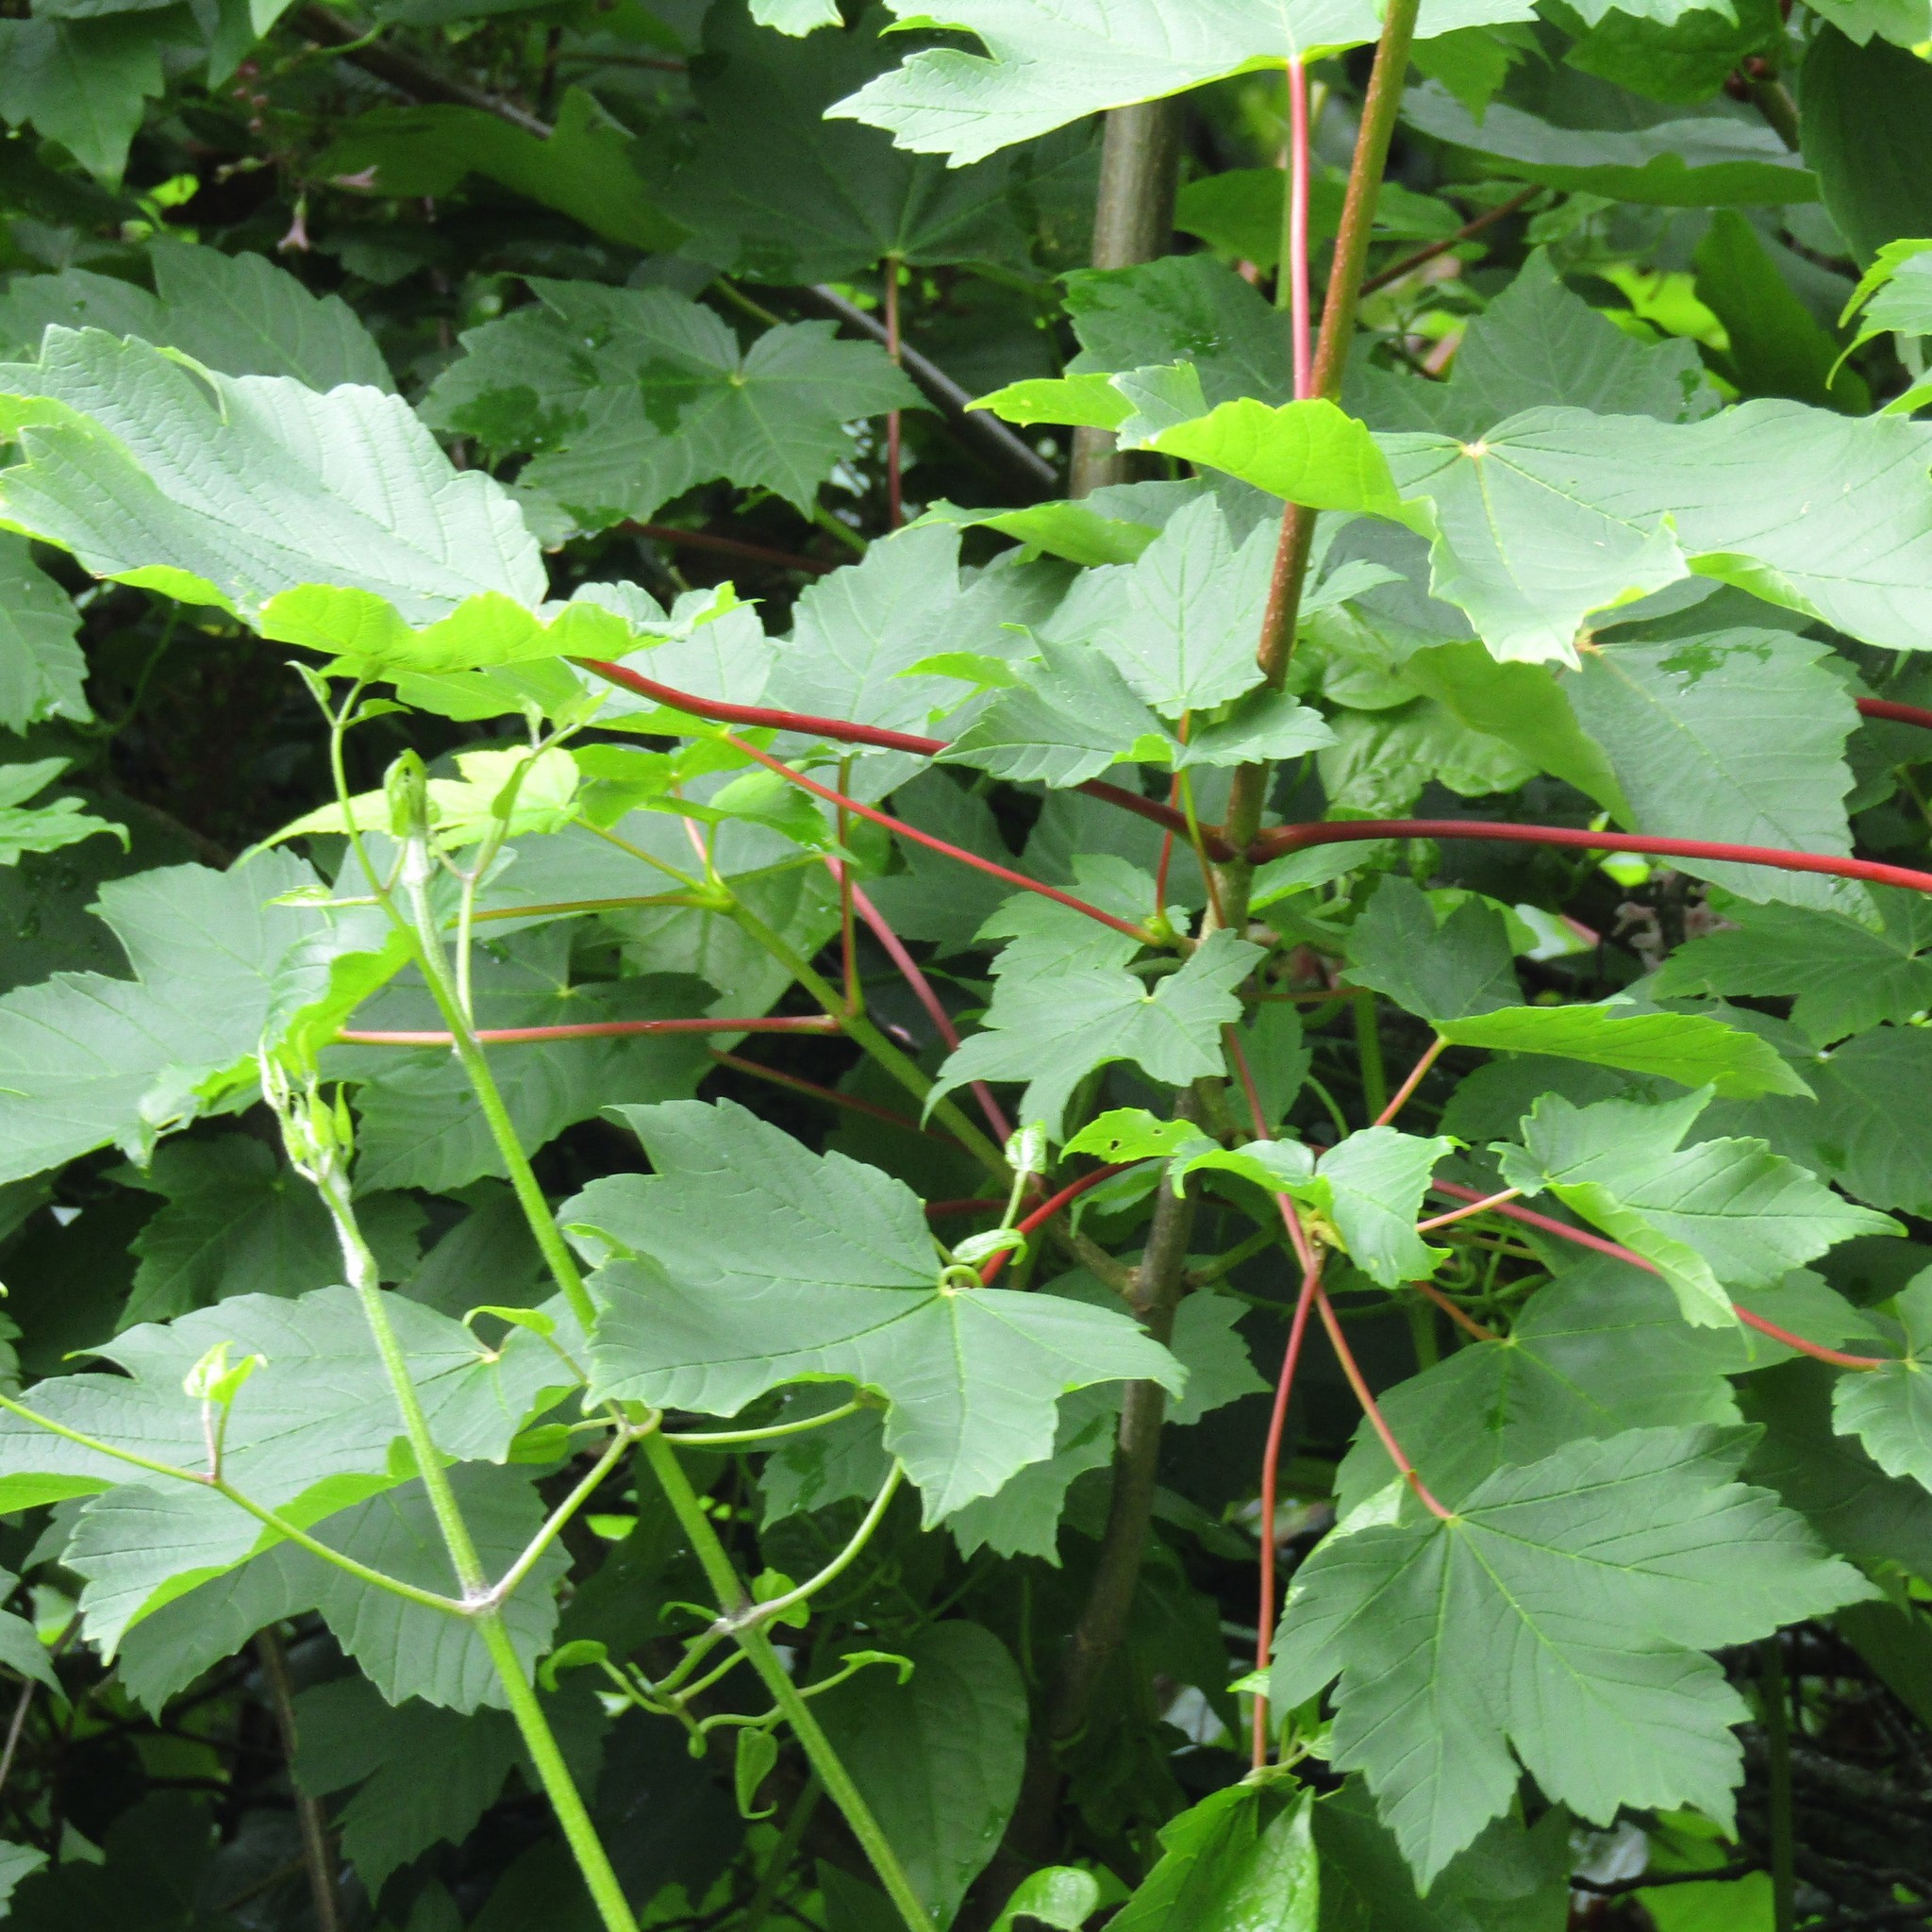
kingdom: Plantae
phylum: Tracheophyta
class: Magnoliopsida
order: Sapindales
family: Sapindaceae
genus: Acer
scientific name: Acer pseudoplatanus
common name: Sycamore
